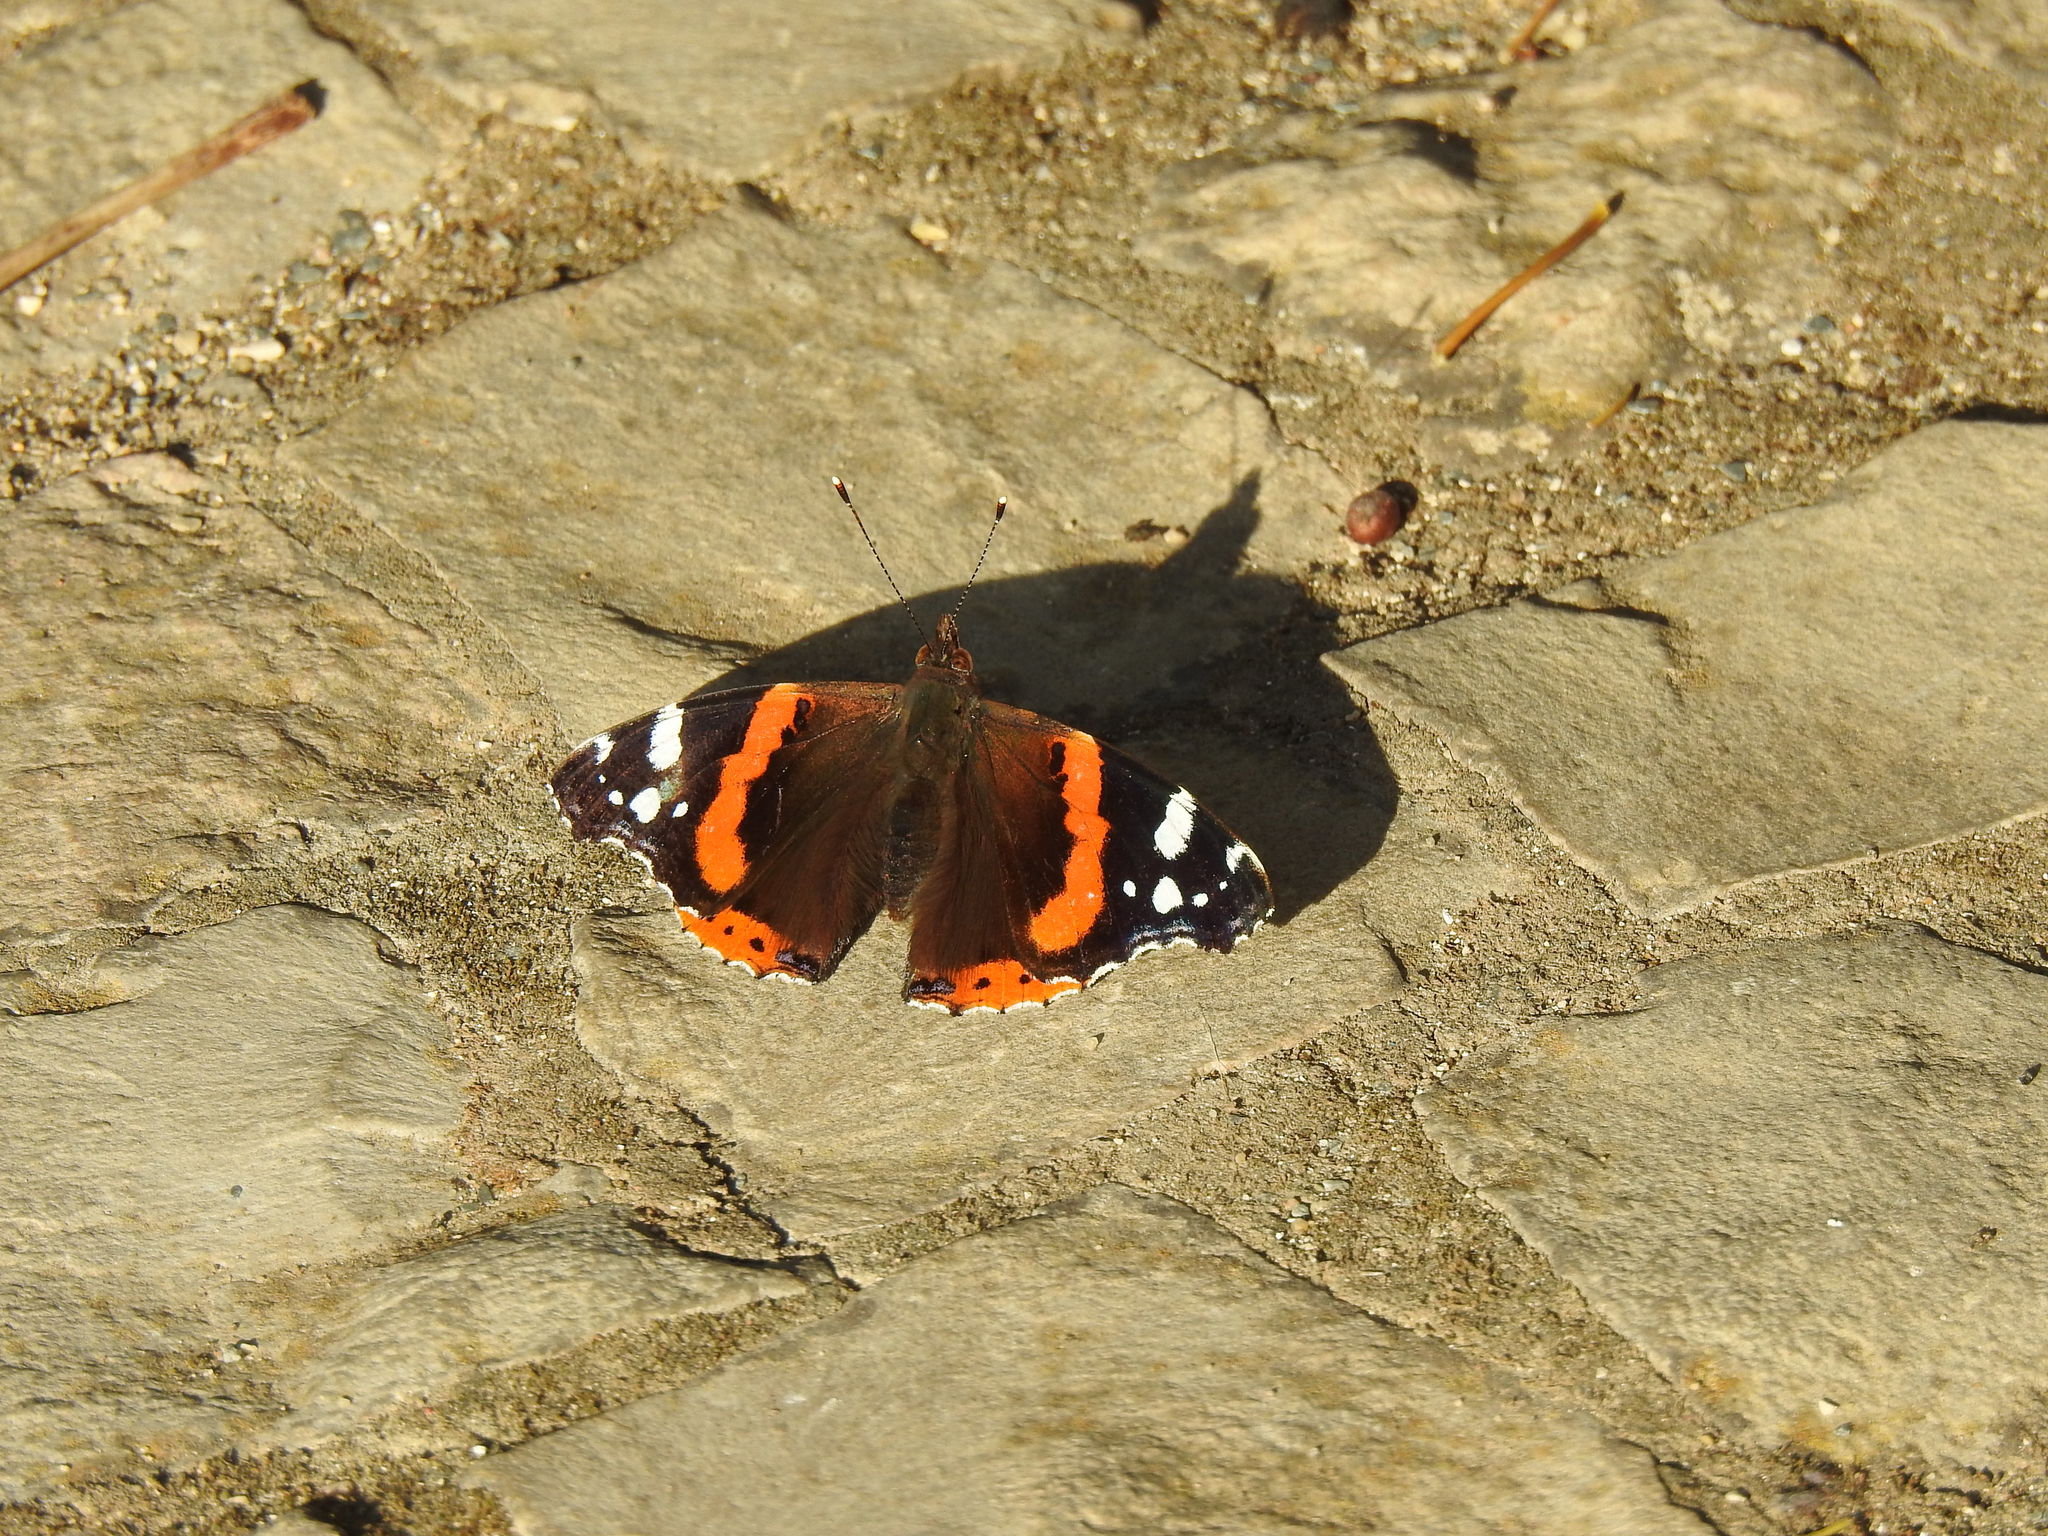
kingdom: Animalia
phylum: Arthropoda
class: Insecta
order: Lepidoptera
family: Nymphalidae
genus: Vanessa
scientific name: Vanessa atalanta
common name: Red admiral
